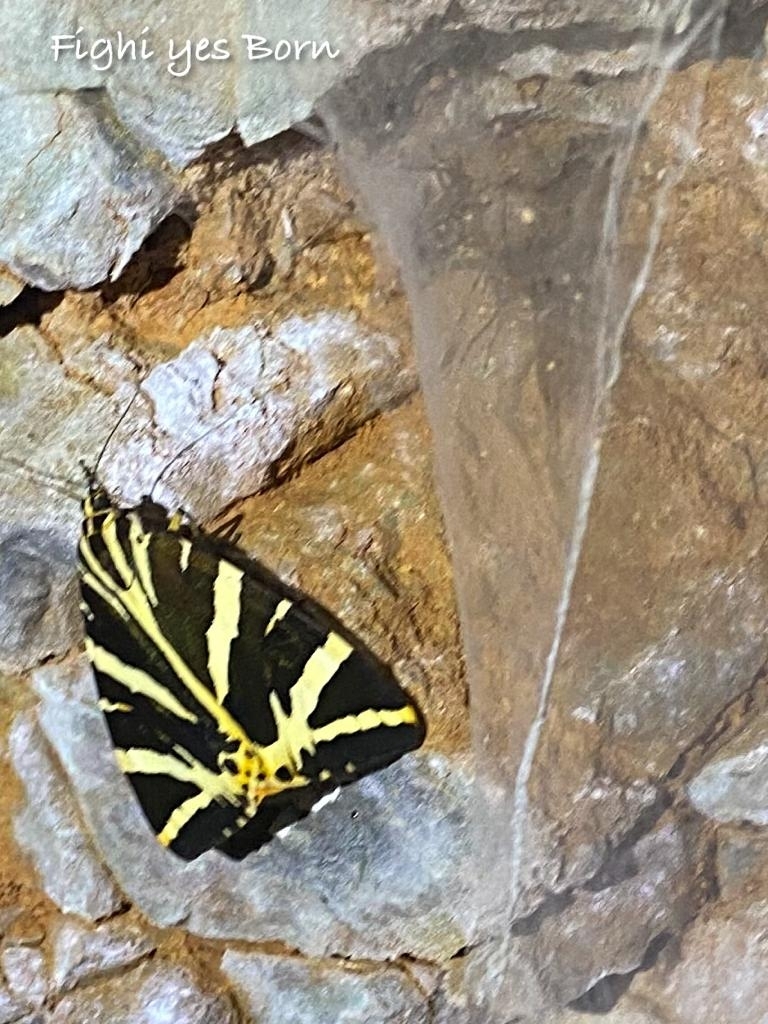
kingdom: Animalia
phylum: Arthropoda
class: Insecta
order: Lepidoptera
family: Erebidae
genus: Euplagia
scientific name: Euplagia quadripunctaria
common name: Jersey tiger
